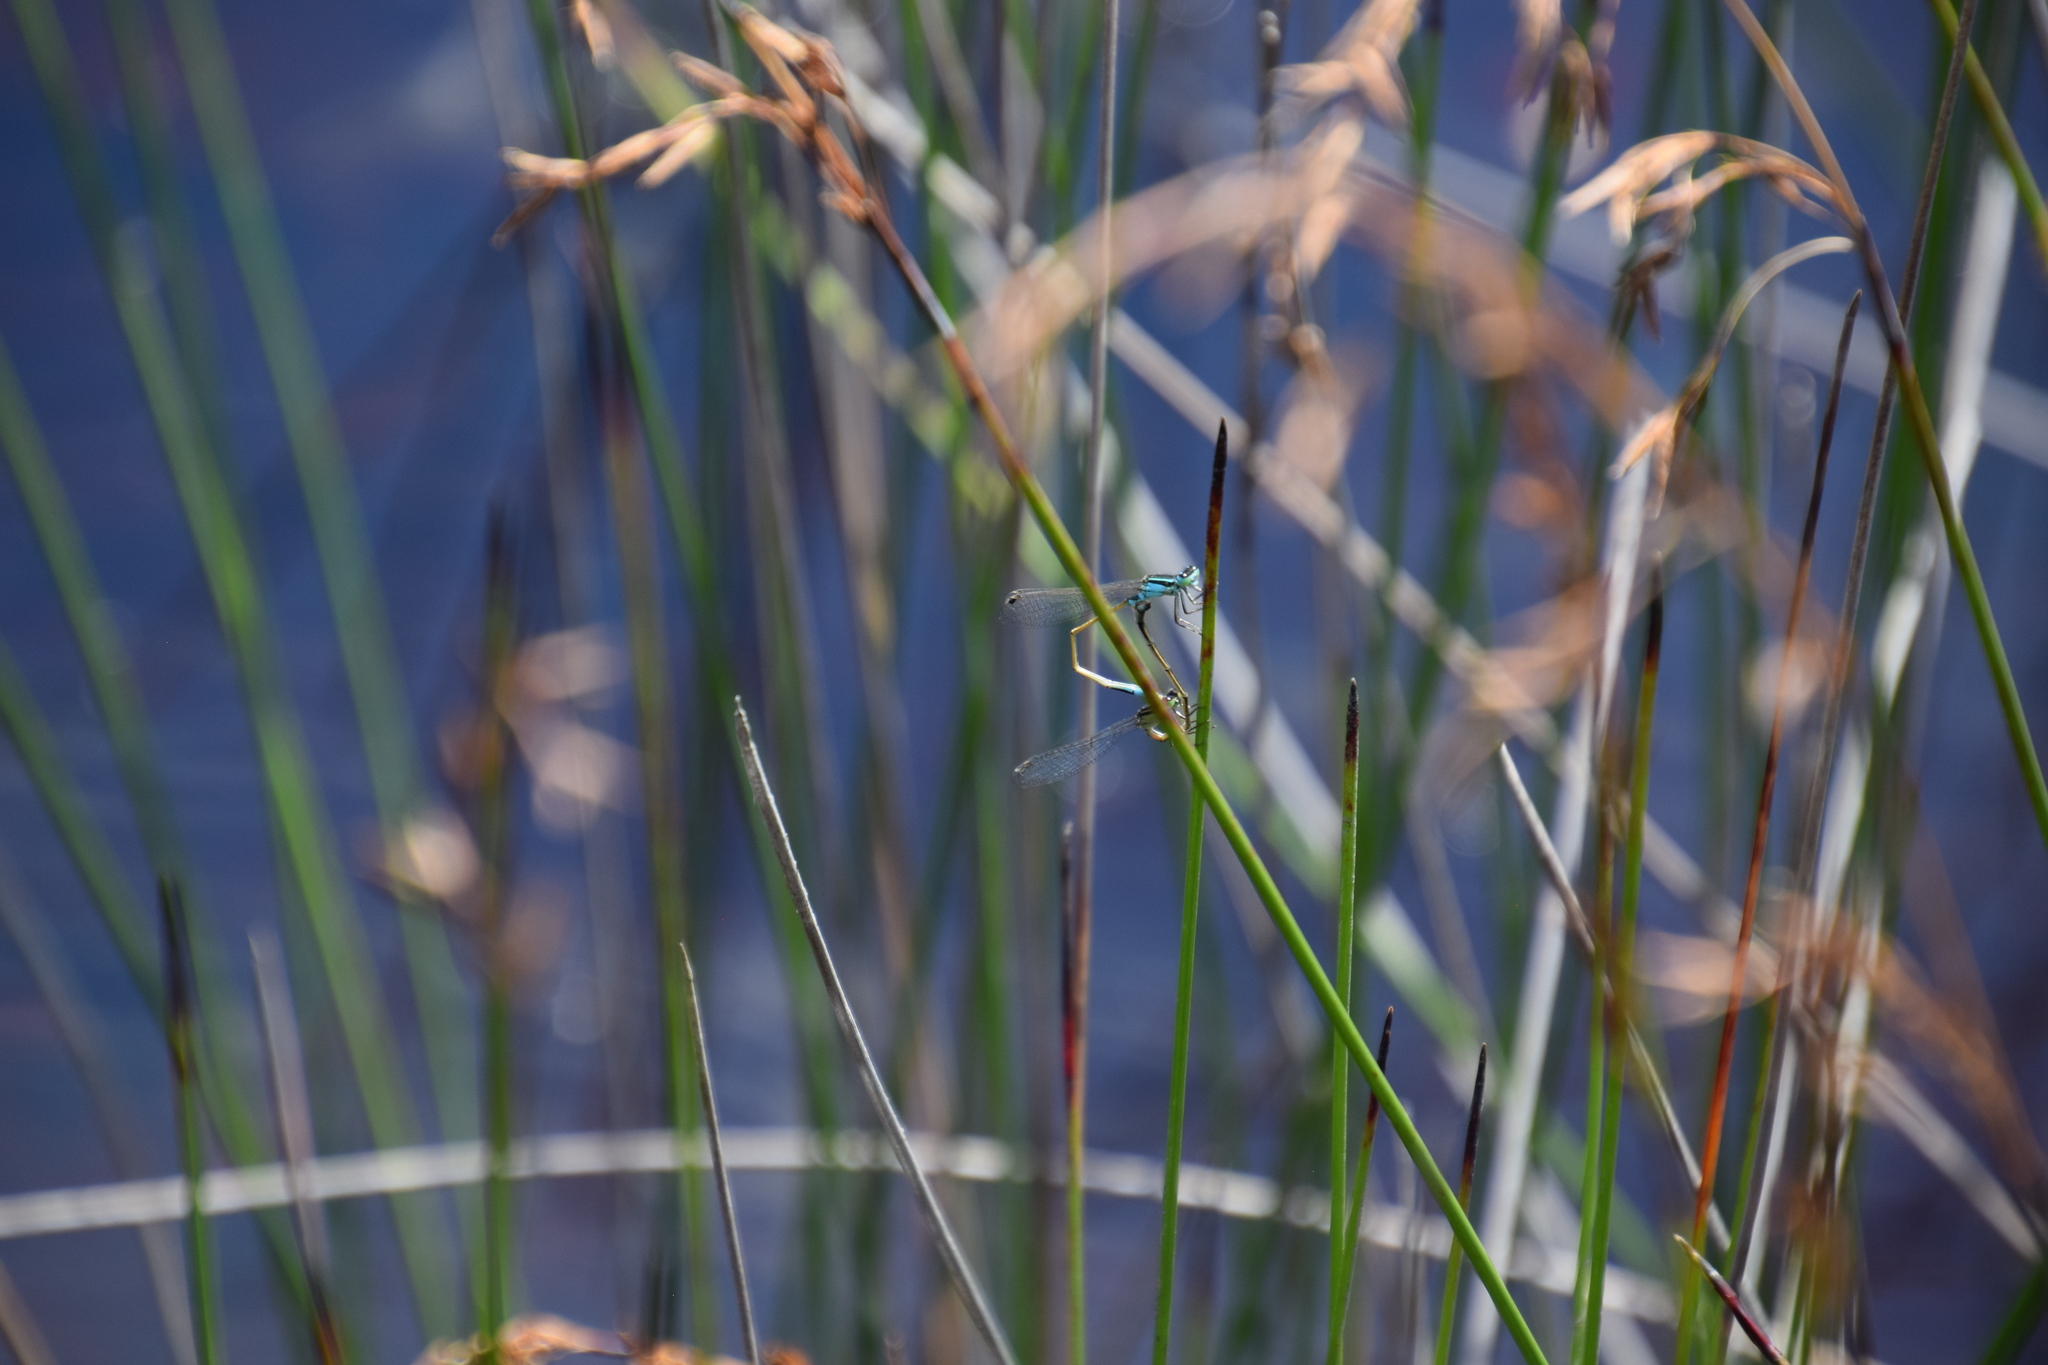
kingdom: Animalia
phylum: Arthropoda
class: Insecta
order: Odonata
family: Coenagrionidae
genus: Ischnura
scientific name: Ischnura heterosticta
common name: Common bluetail
